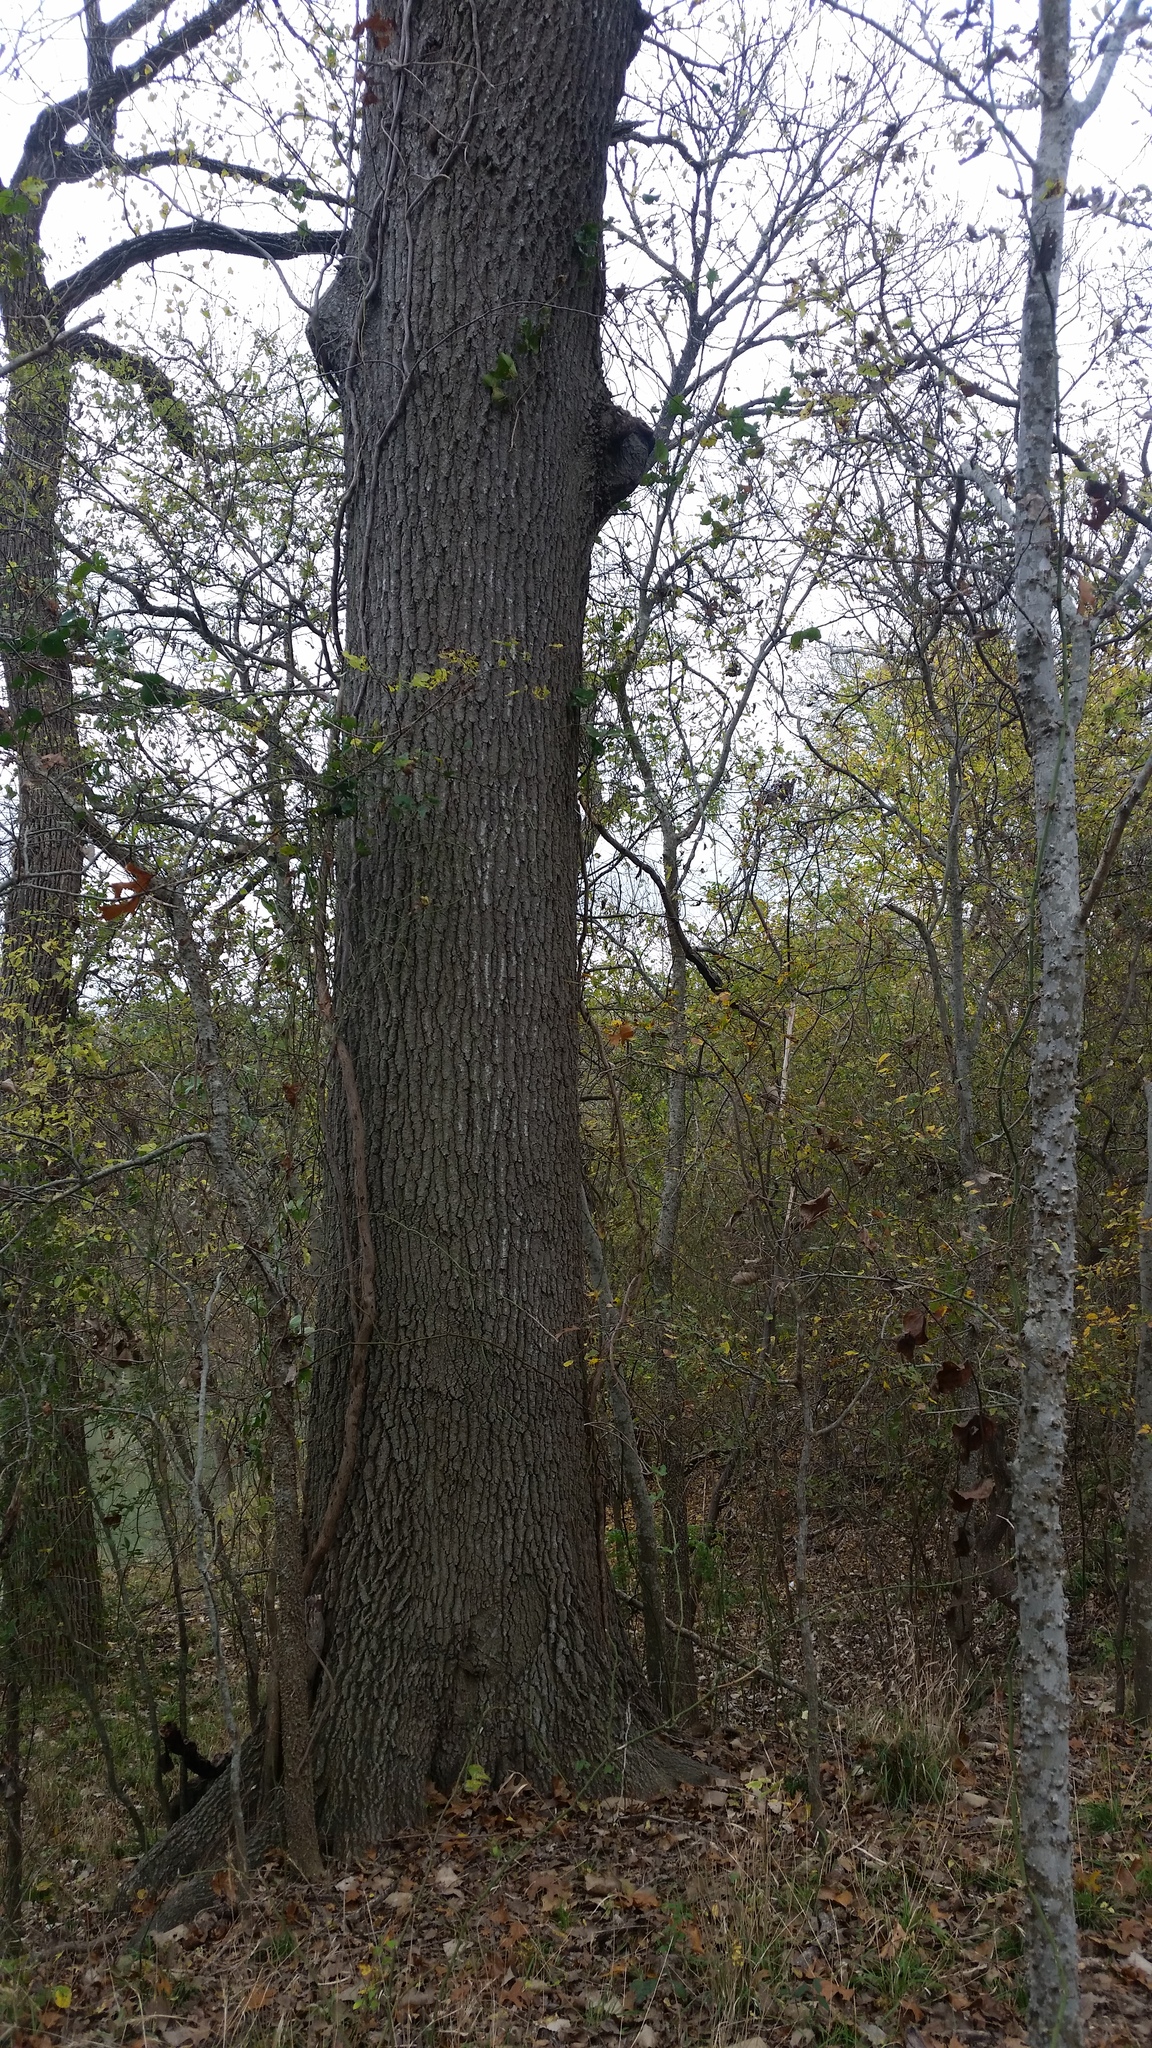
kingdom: Plantae
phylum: Tracheophyta
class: Magnoliopsida
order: Fagales
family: Fagaceae
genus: Quercus
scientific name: Quercus shumardii
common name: Shumard oak
